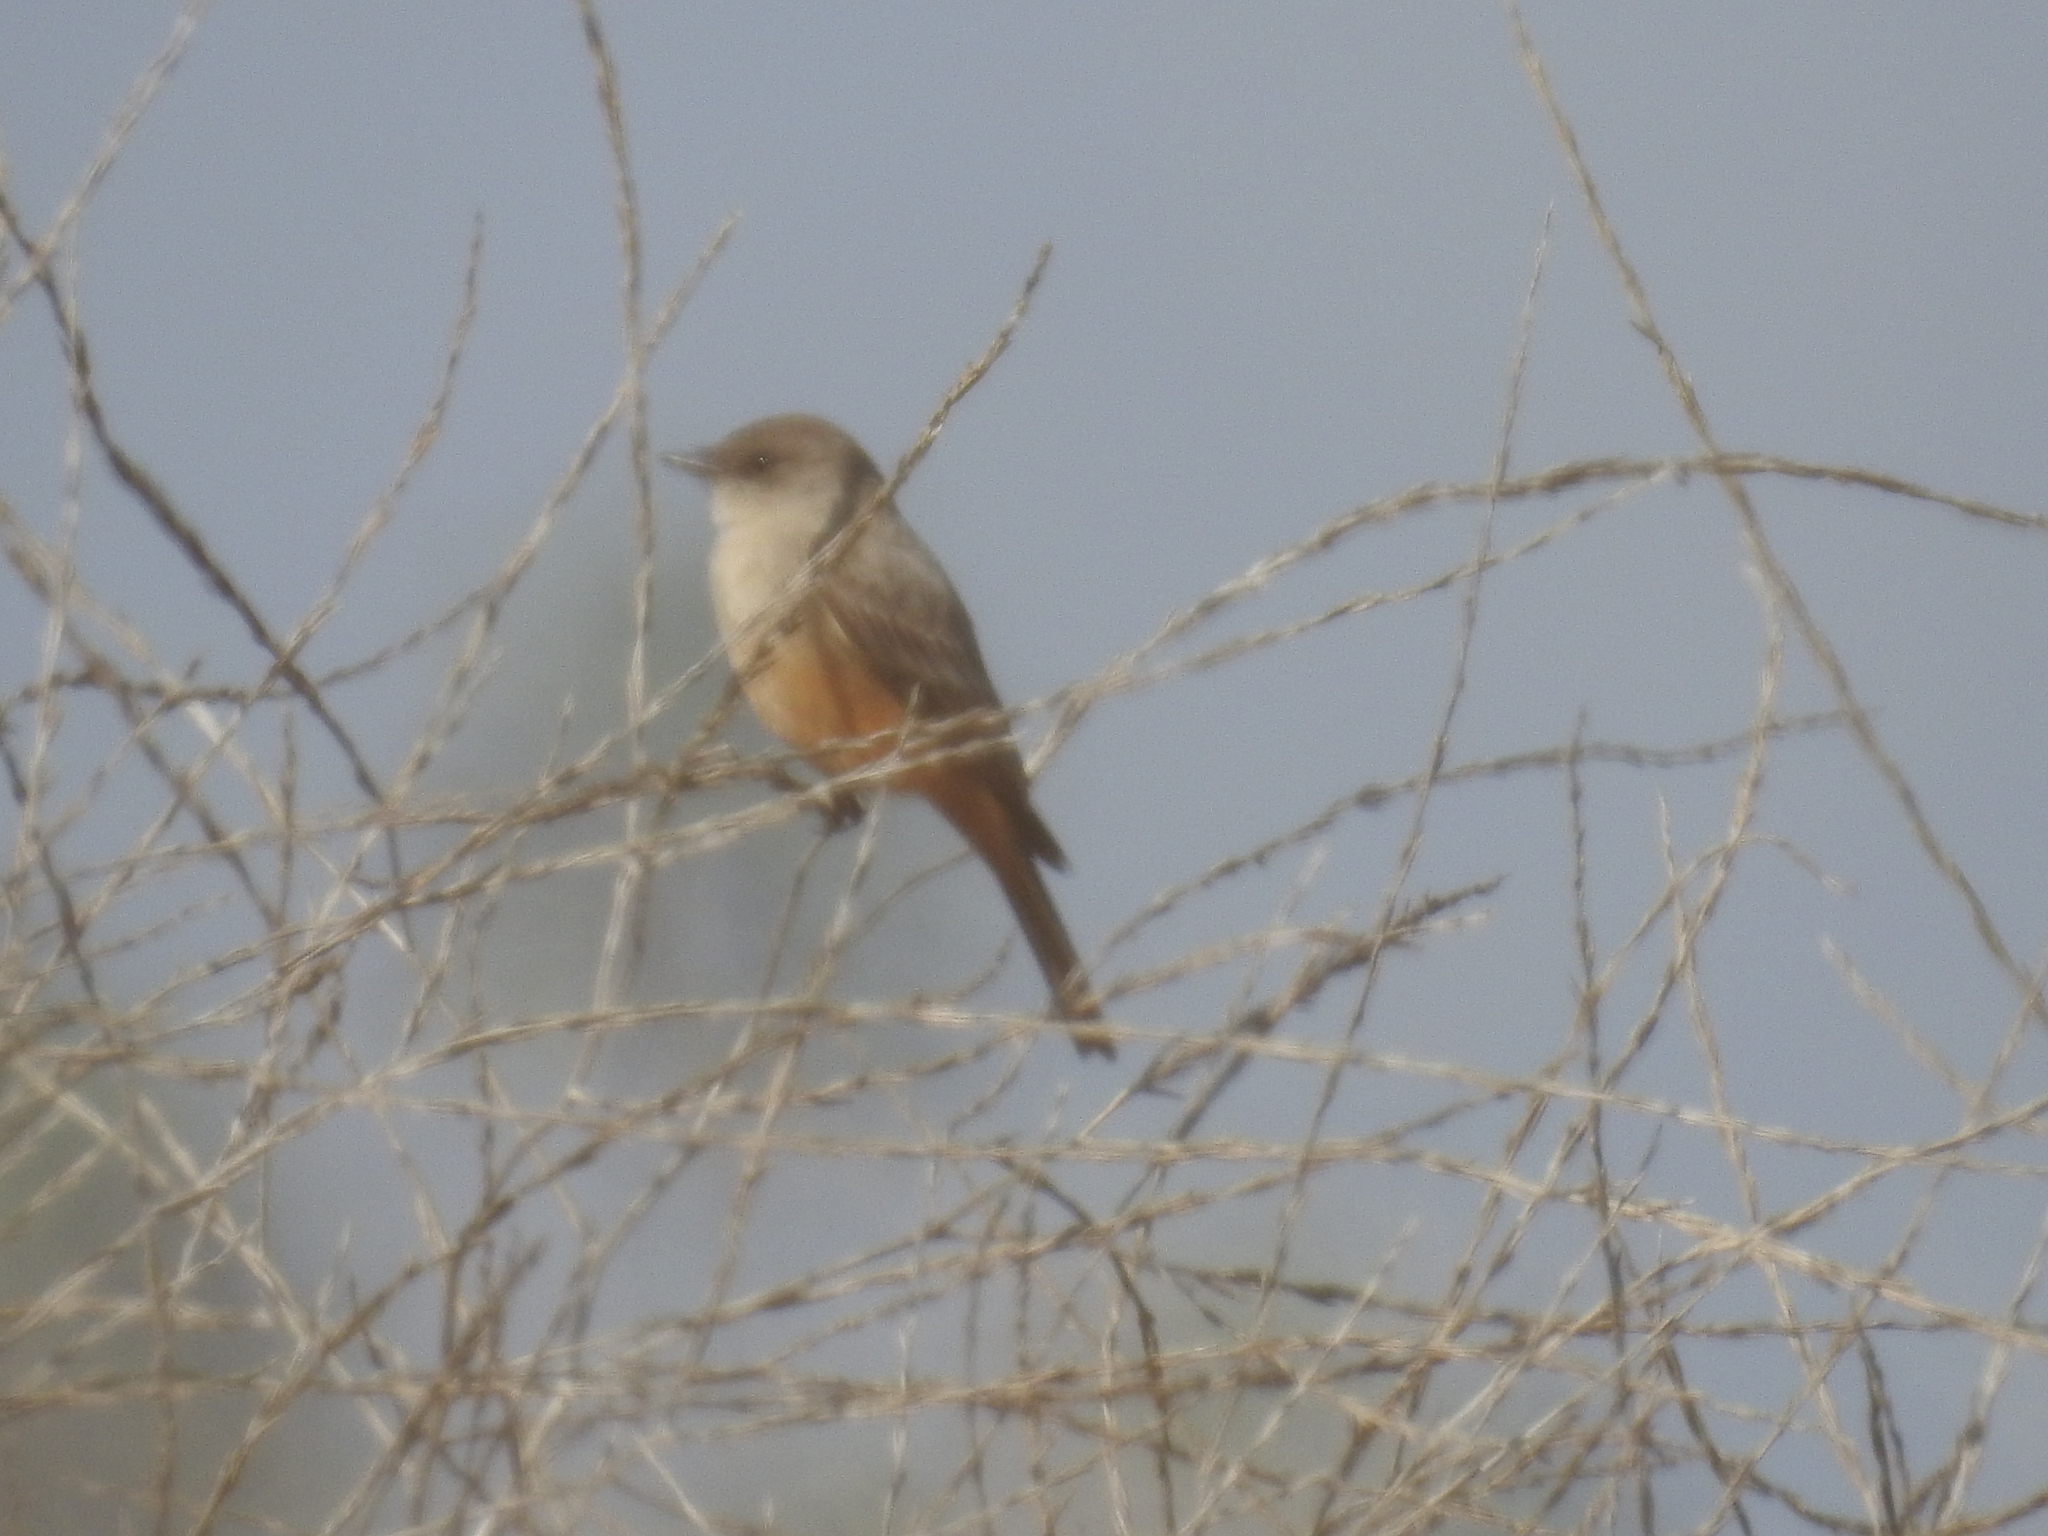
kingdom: Animalia
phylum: Chordata
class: Aves
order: Passeriformes
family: Tyrannidae
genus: Sayornis
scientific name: Sayornis saya
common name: Say's phoebe
